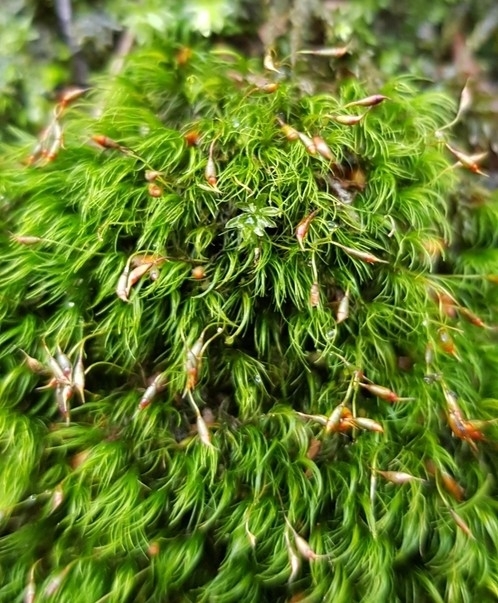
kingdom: Plantae
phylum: Bryophyta
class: Bryopsida
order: Dicranales
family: Dicranellaceae
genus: Dicranella
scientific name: Dicranella heteromalla
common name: Silky forklet moss
